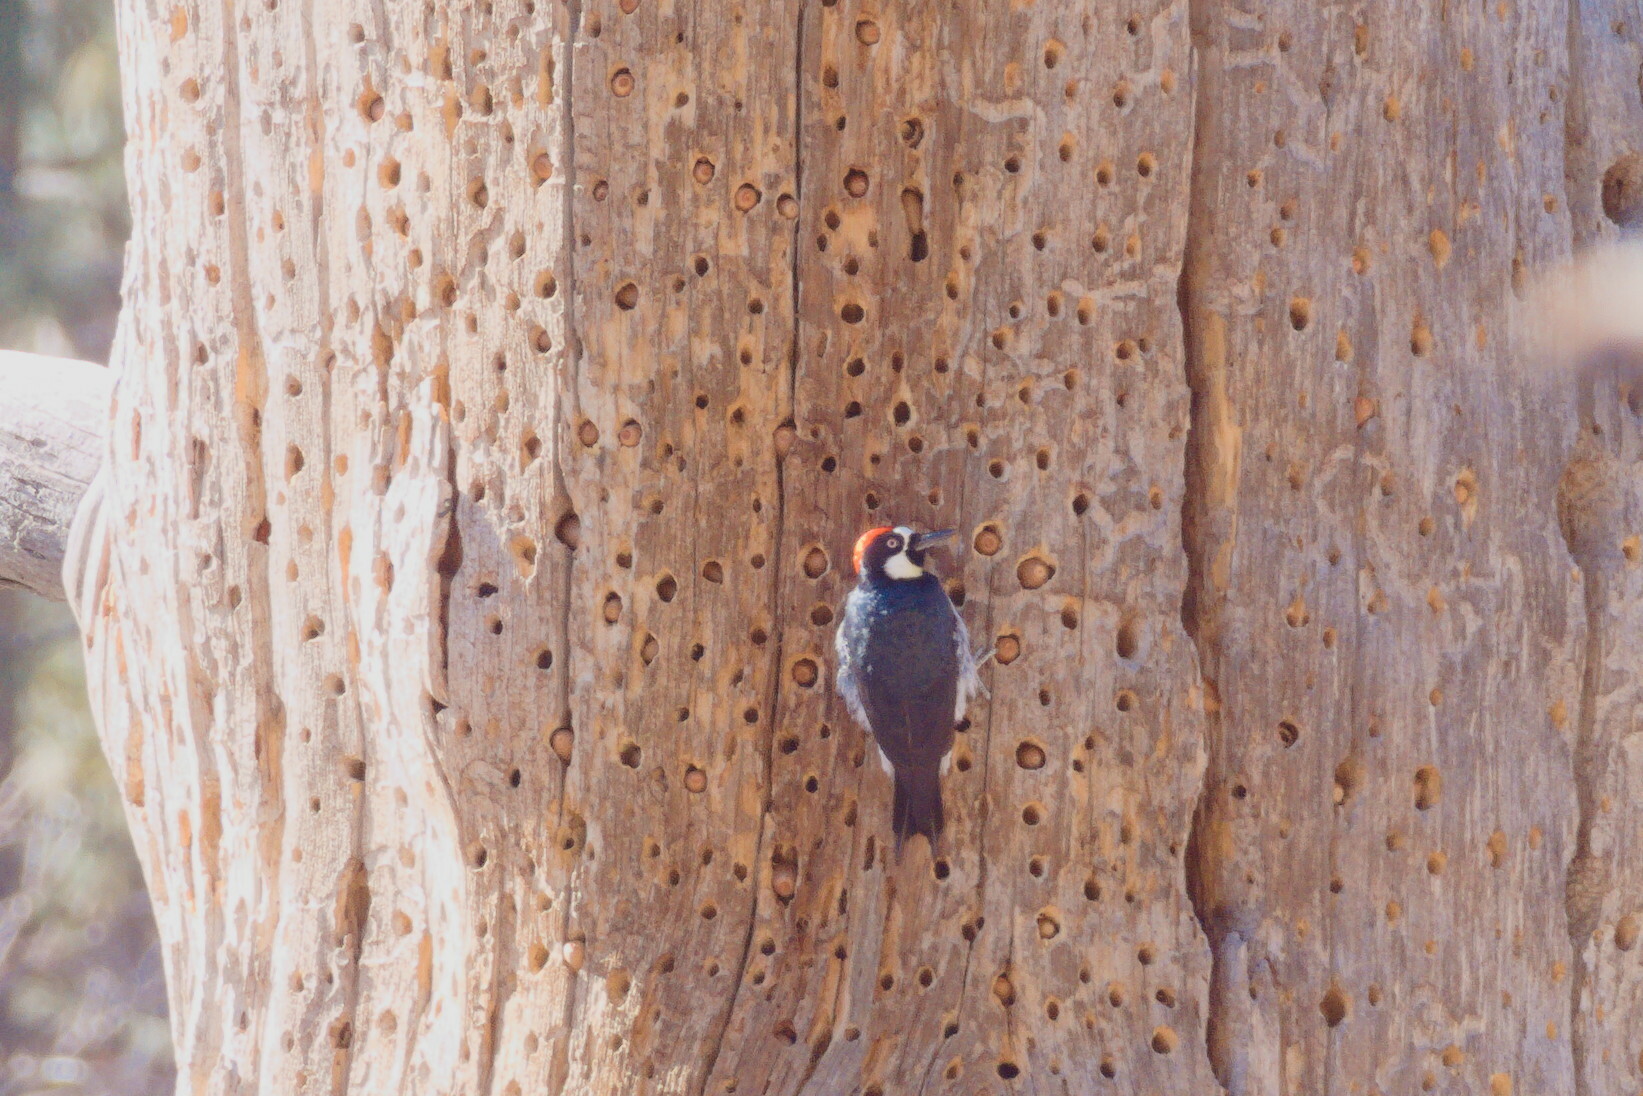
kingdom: Animalia
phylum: Chordata
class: Aves
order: Piciformes
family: Picidae
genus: Melanerpes
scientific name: Melanerpes formicivorus
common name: Acorn woodpecker
